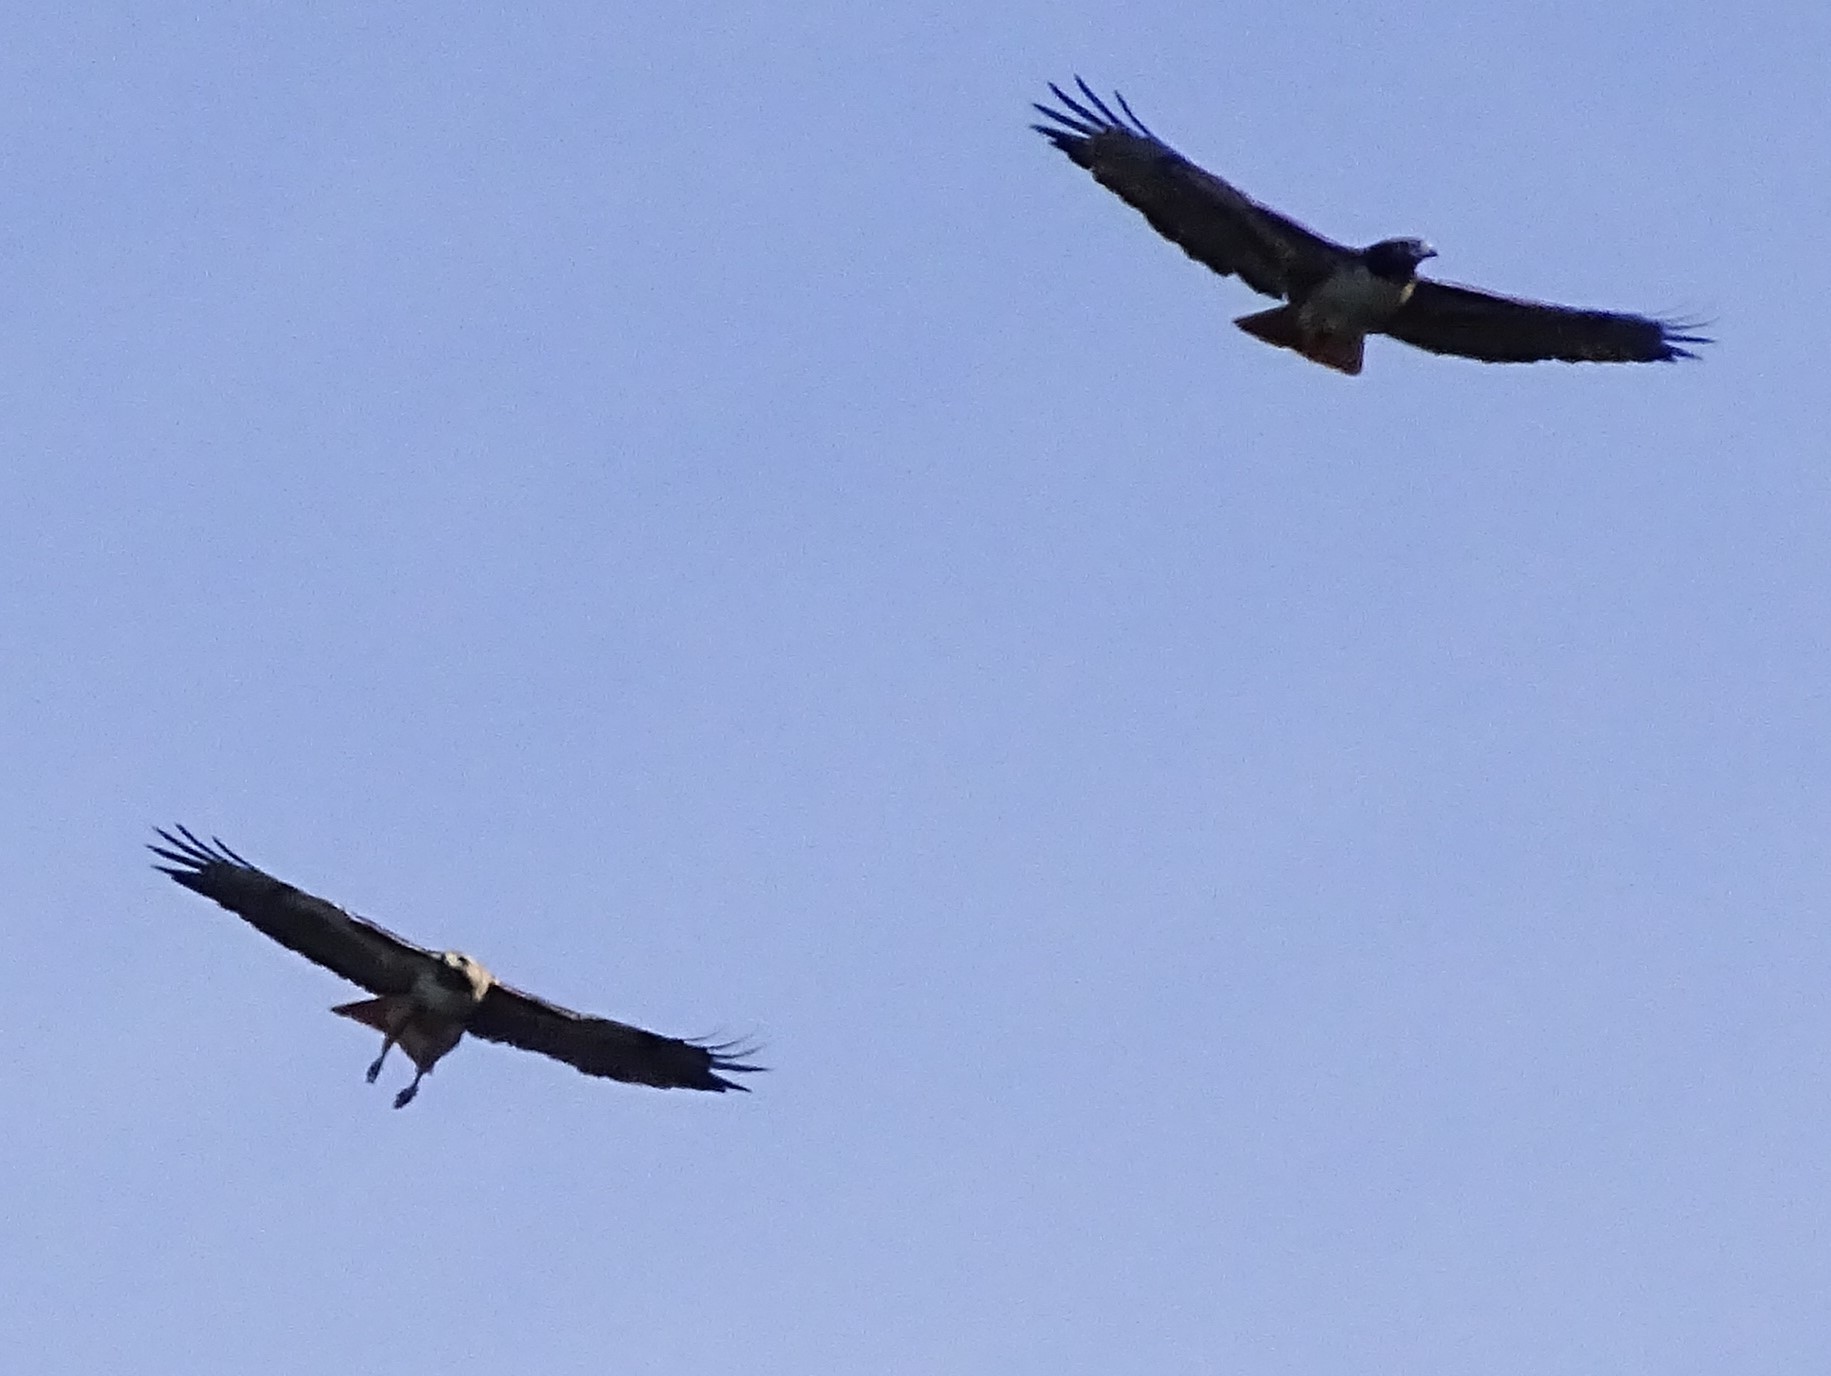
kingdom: Animalia
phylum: Chordata
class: Aves
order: Accipitriformes
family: Accipitridae
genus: Buteo
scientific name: Buteo jamaicensis
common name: Red-tailed hawk
